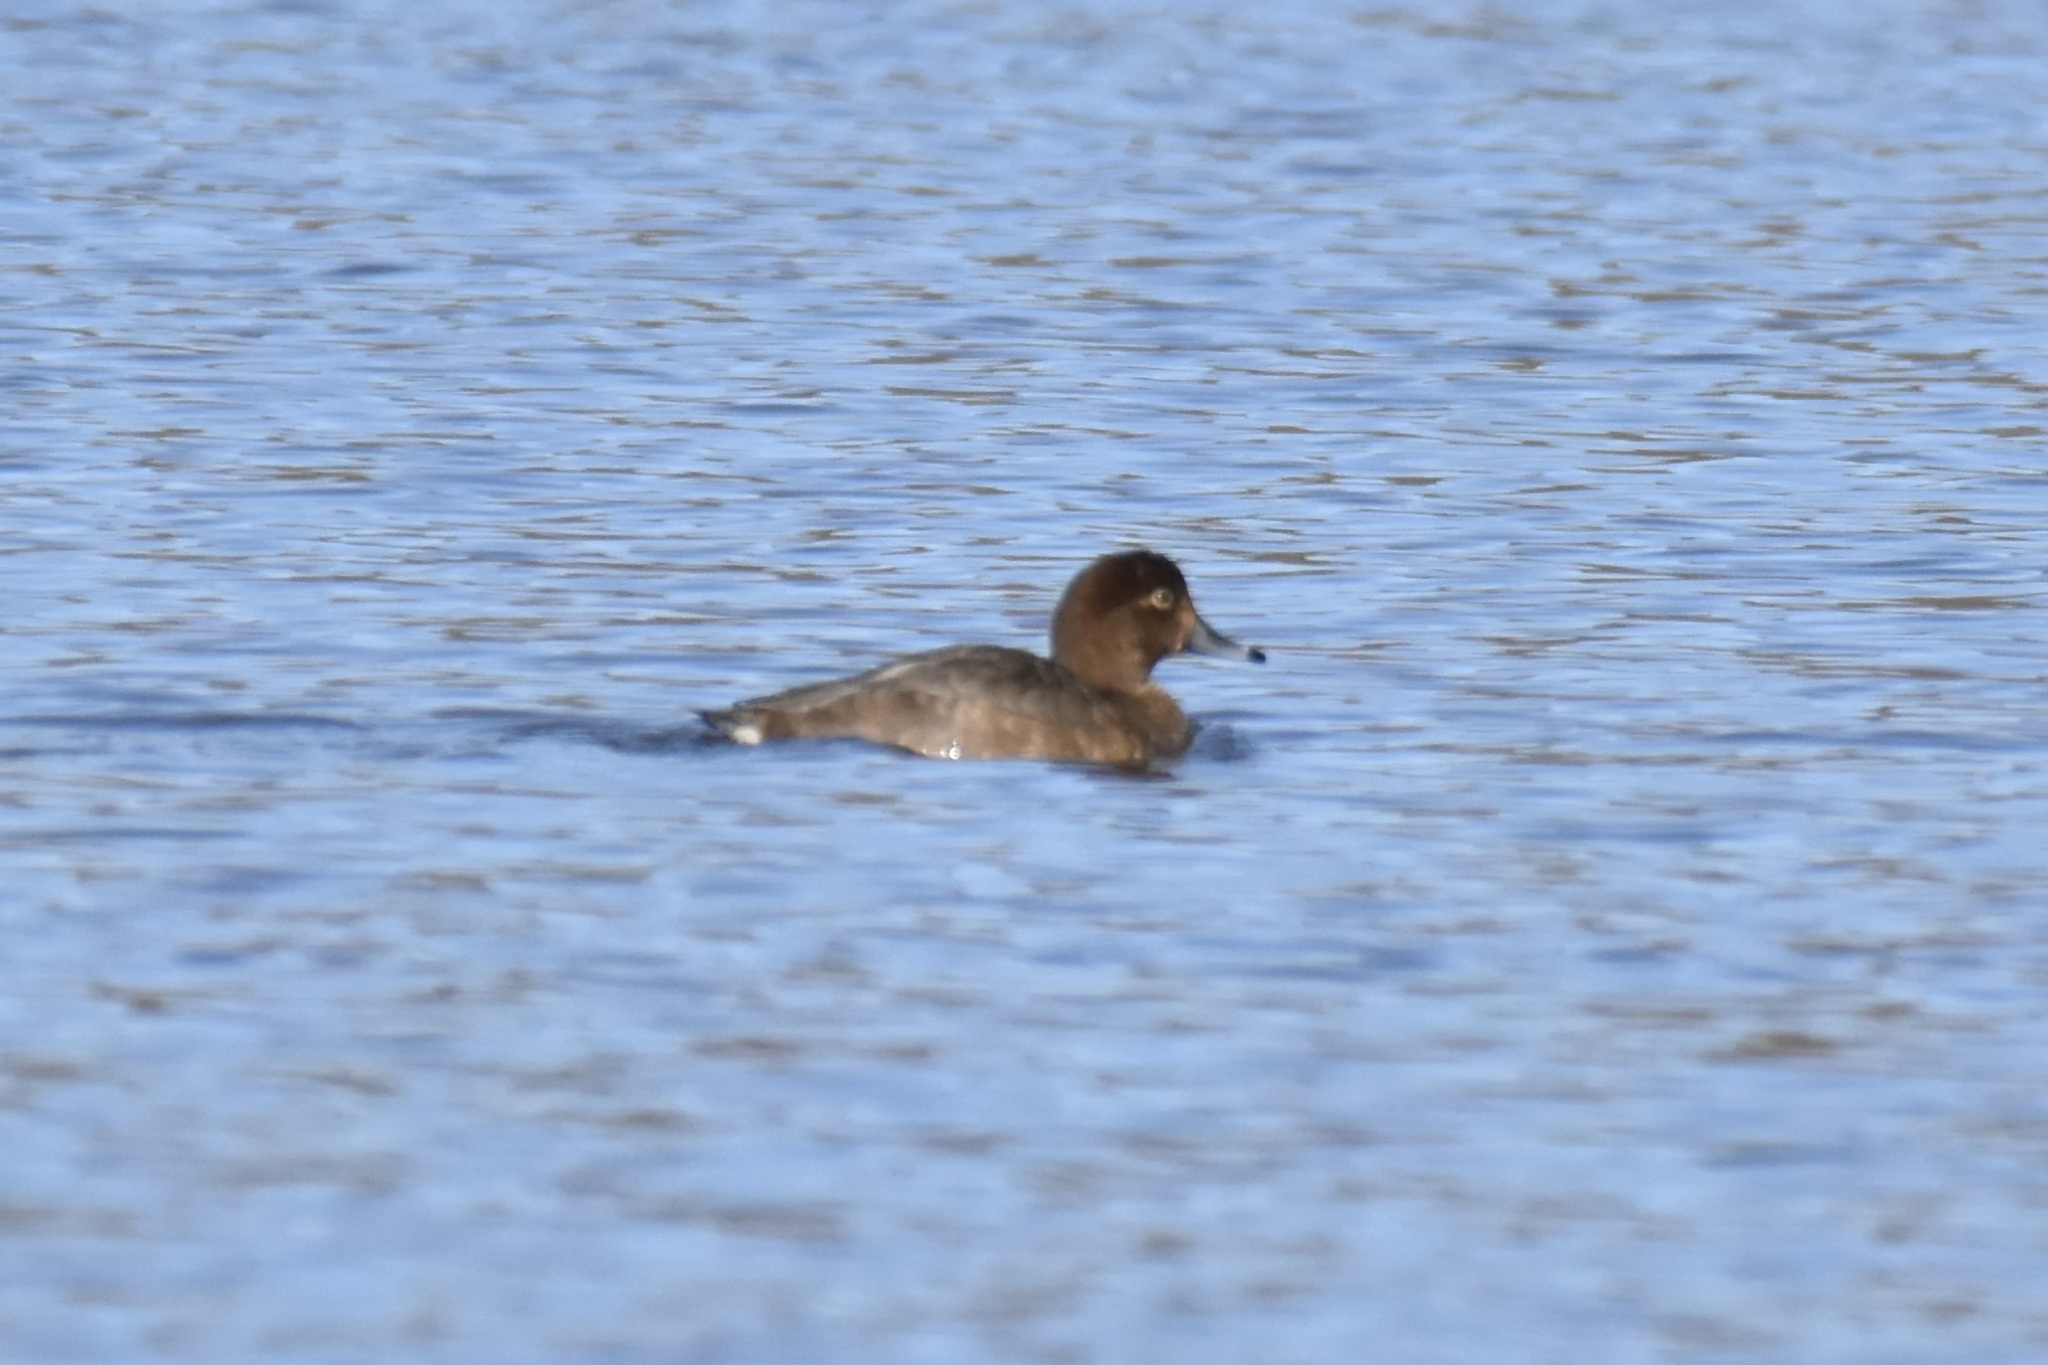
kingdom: Animalia
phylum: Chordata
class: Aves
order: Anseriformes
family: Anatidae
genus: Aythya
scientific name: Aythya americana
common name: Redhead
